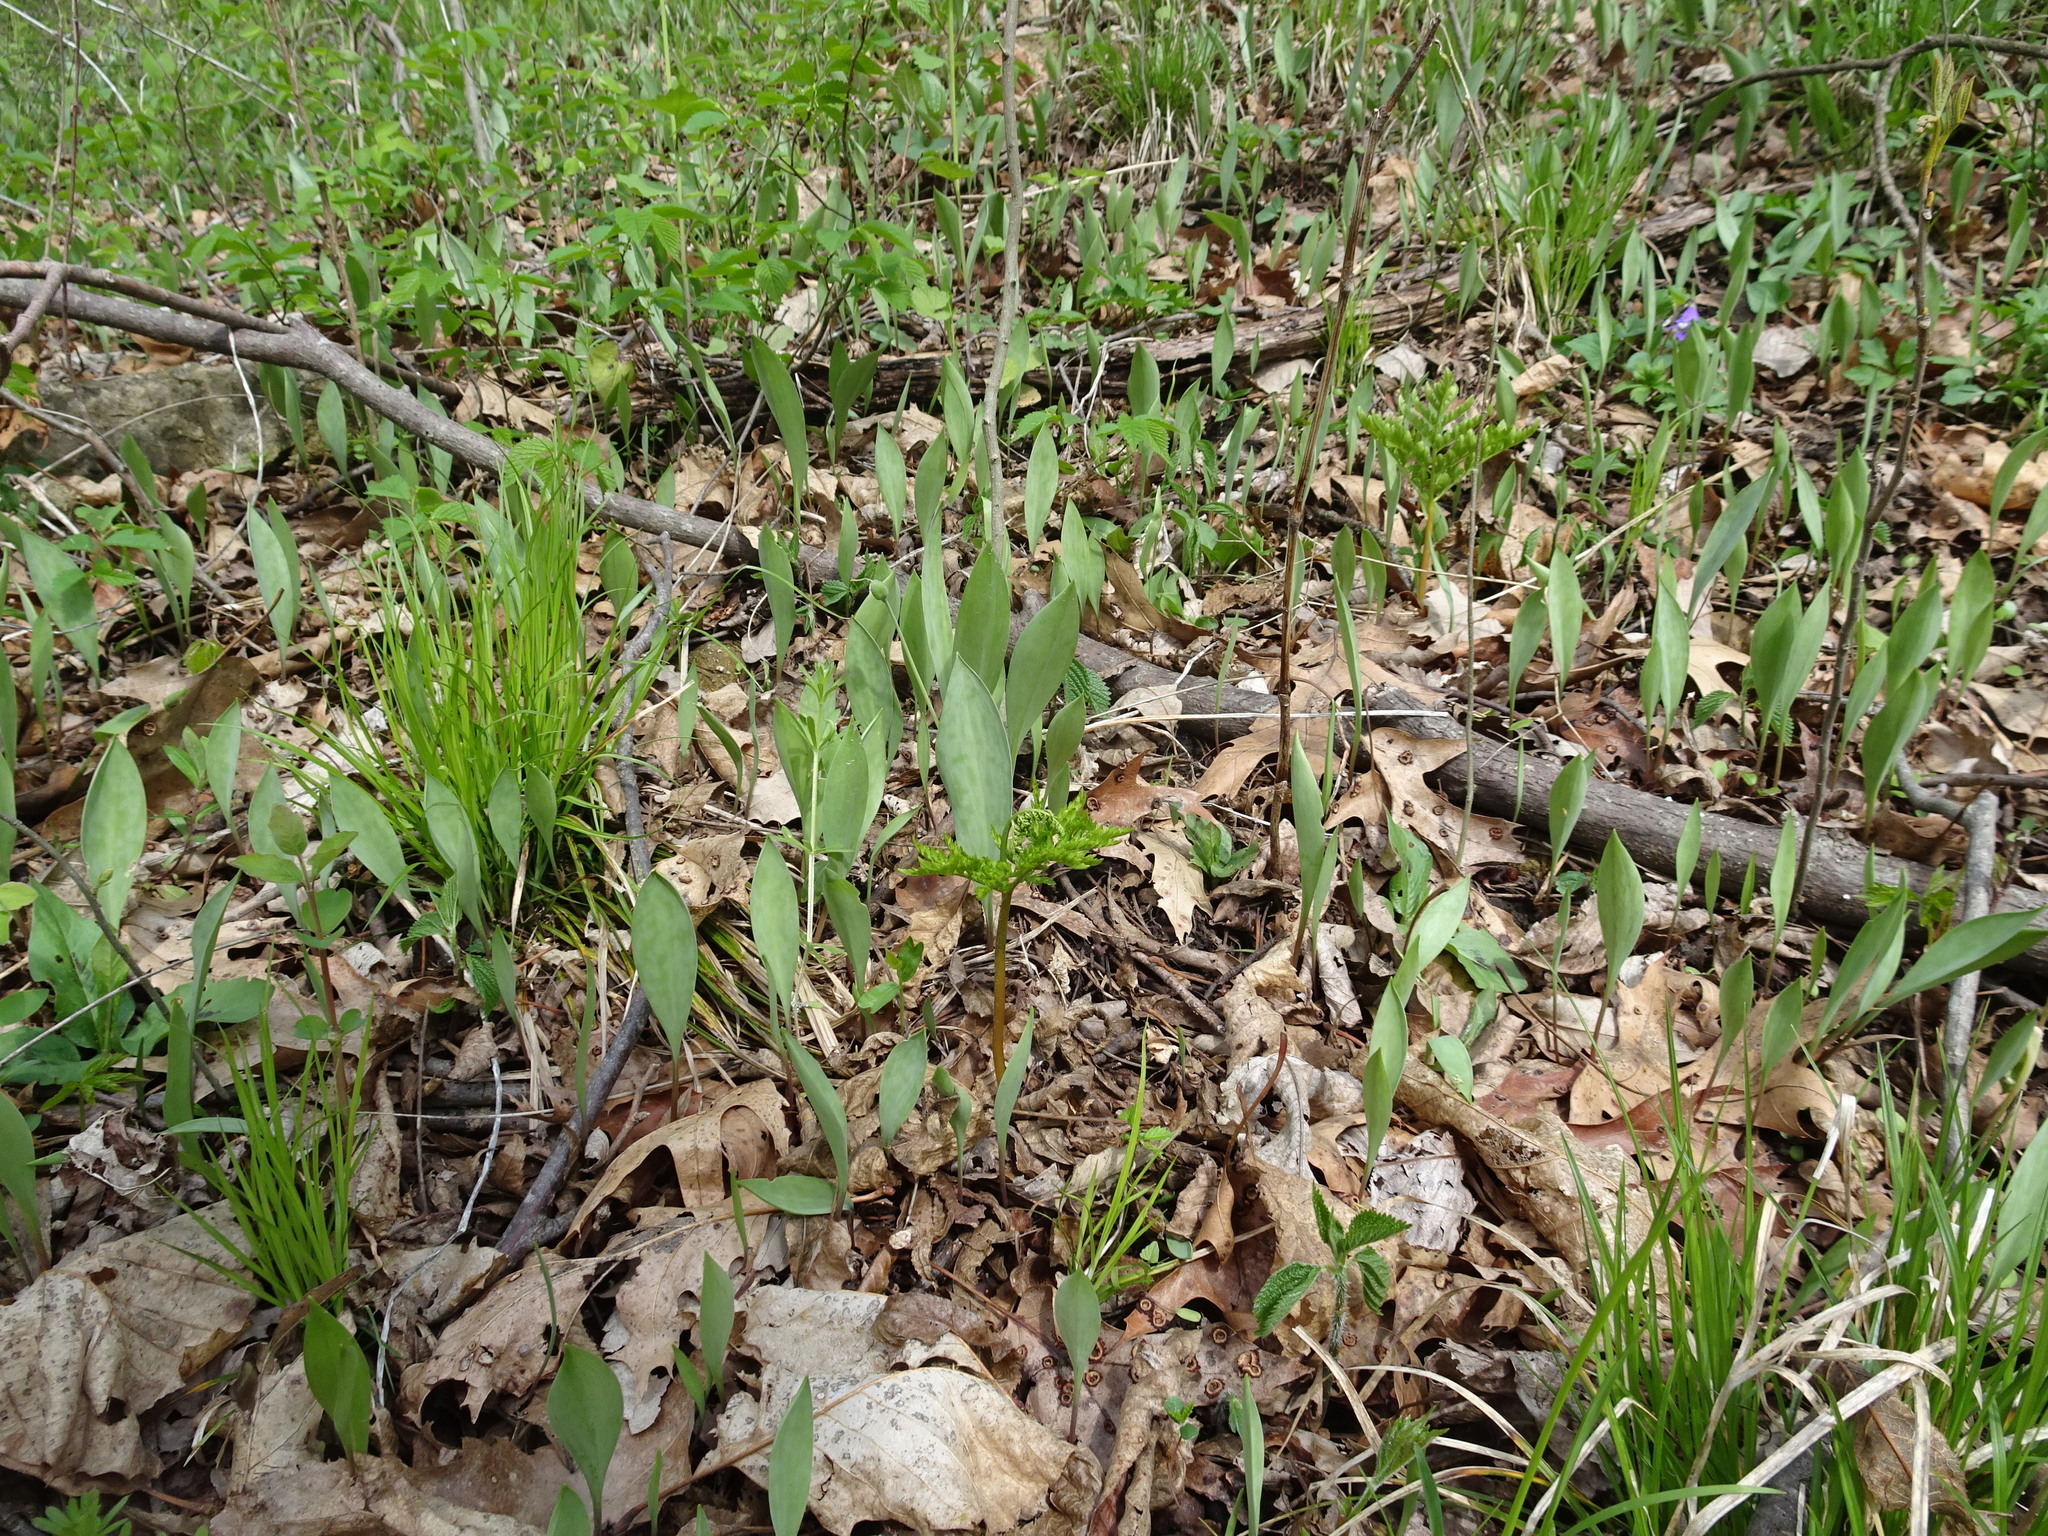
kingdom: Plantae
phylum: Tracheophyta
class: Liliopsida
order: Liliales
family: Liliaceae
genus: Erythronium
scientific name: Erythronium albidum
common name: White trout-lily
